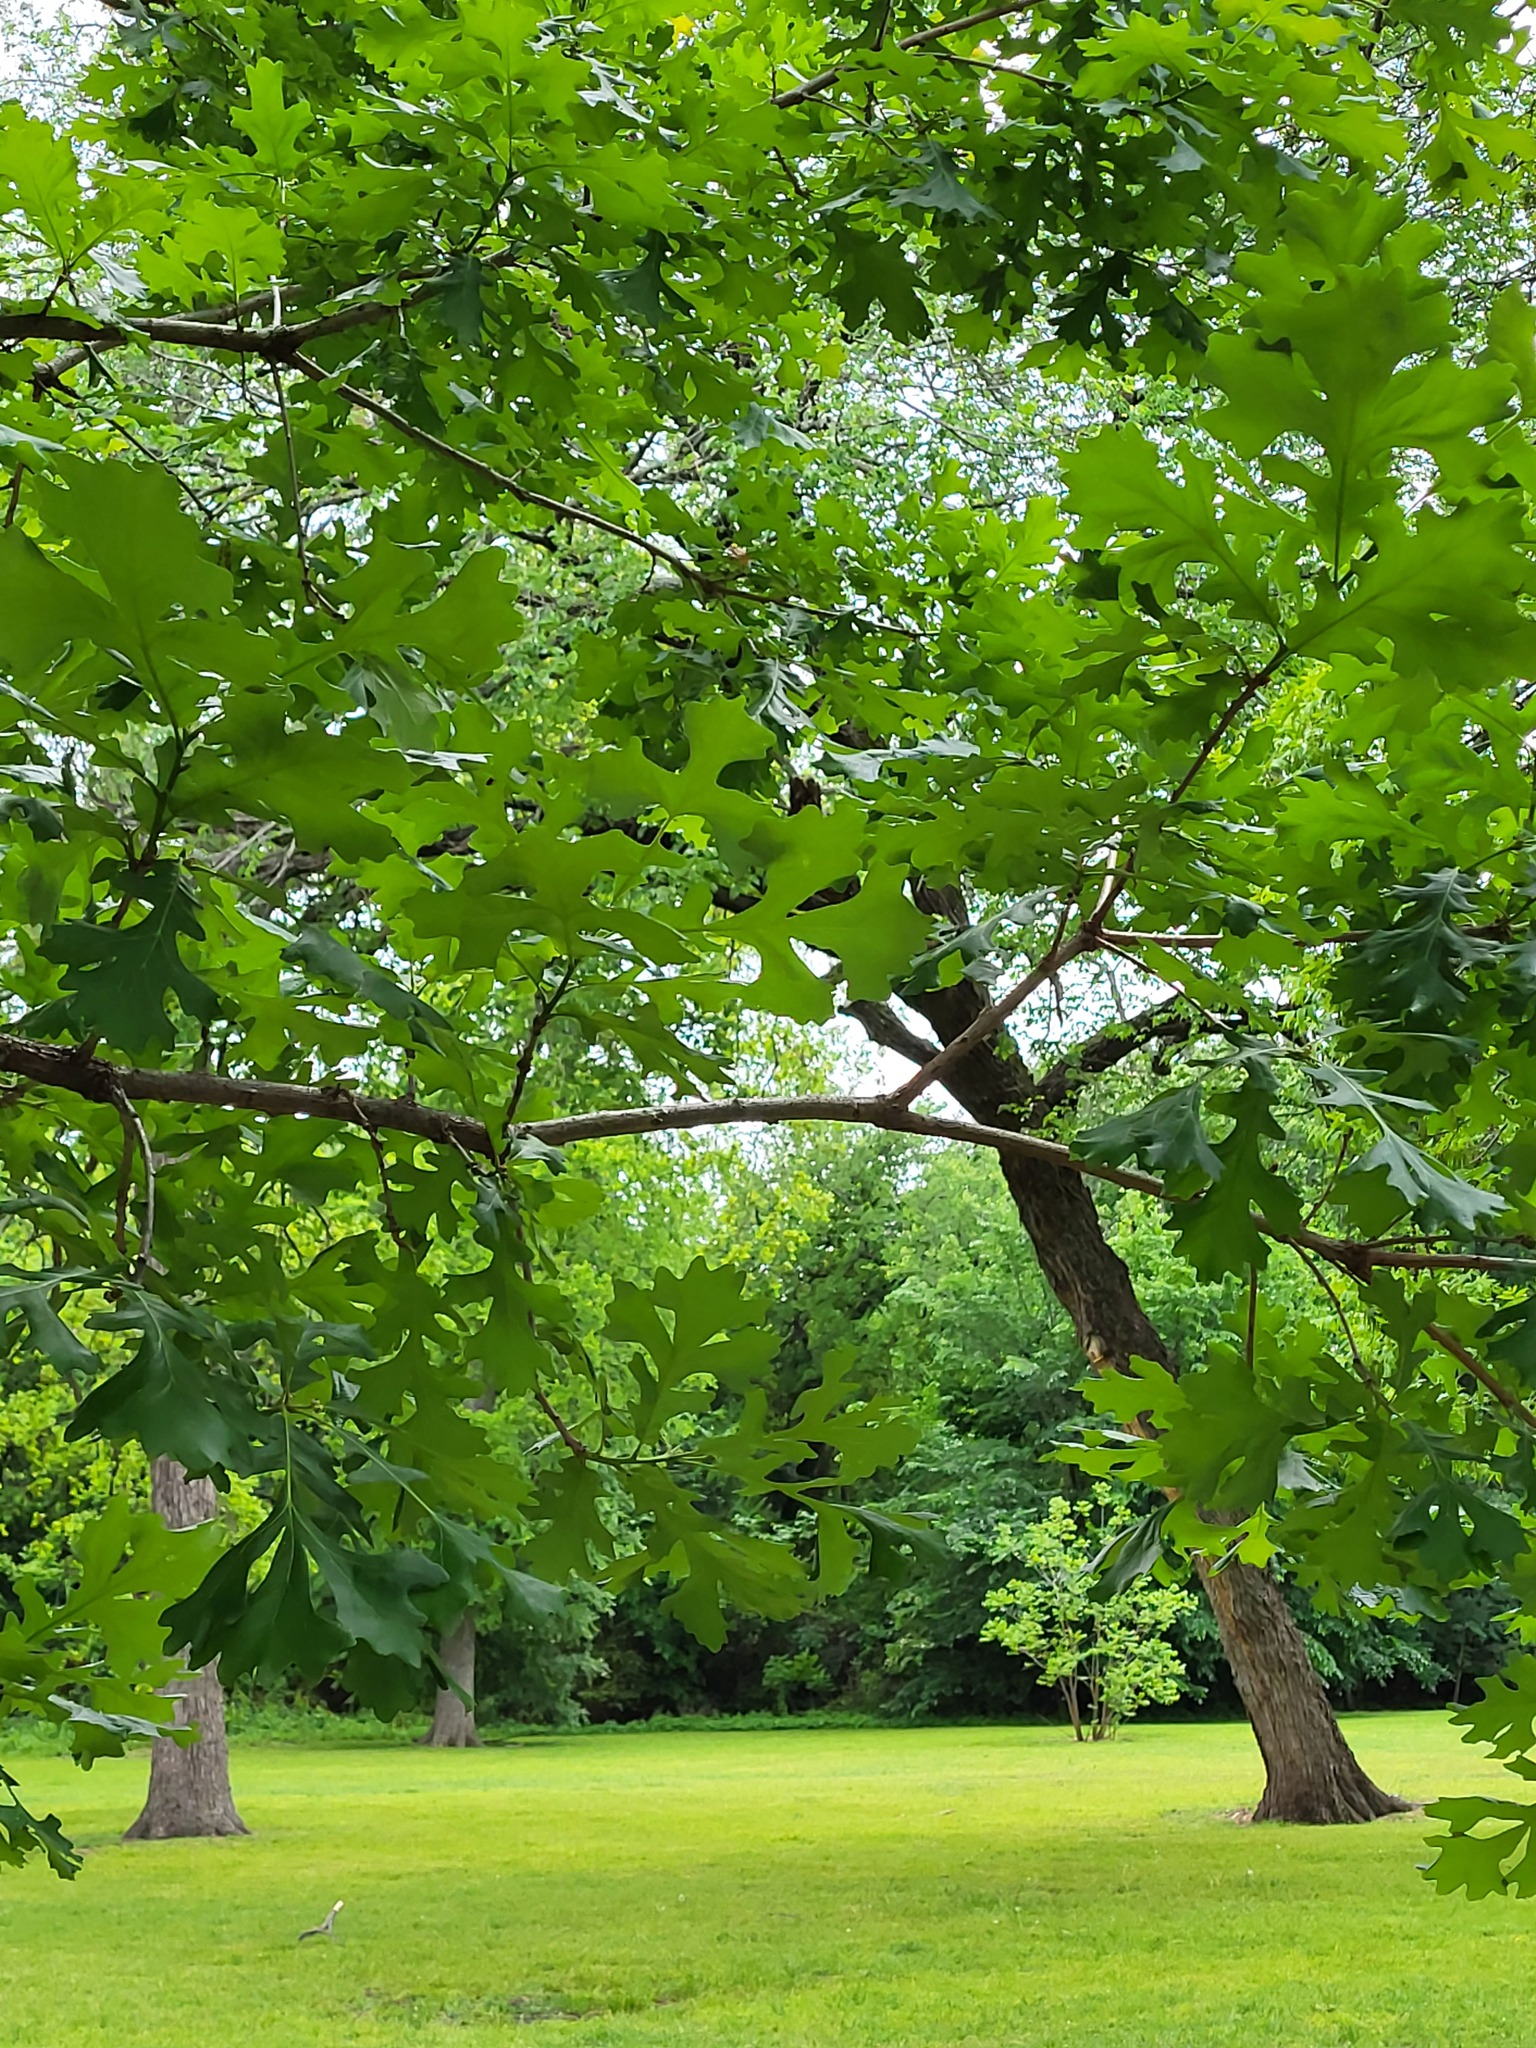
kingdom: Plantae
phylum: Tracheophyta
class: Magnoliopsida
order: Fagales
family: Fagaceae
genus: Quercus
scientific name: Quercus macrocarpa
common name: Bur oak
